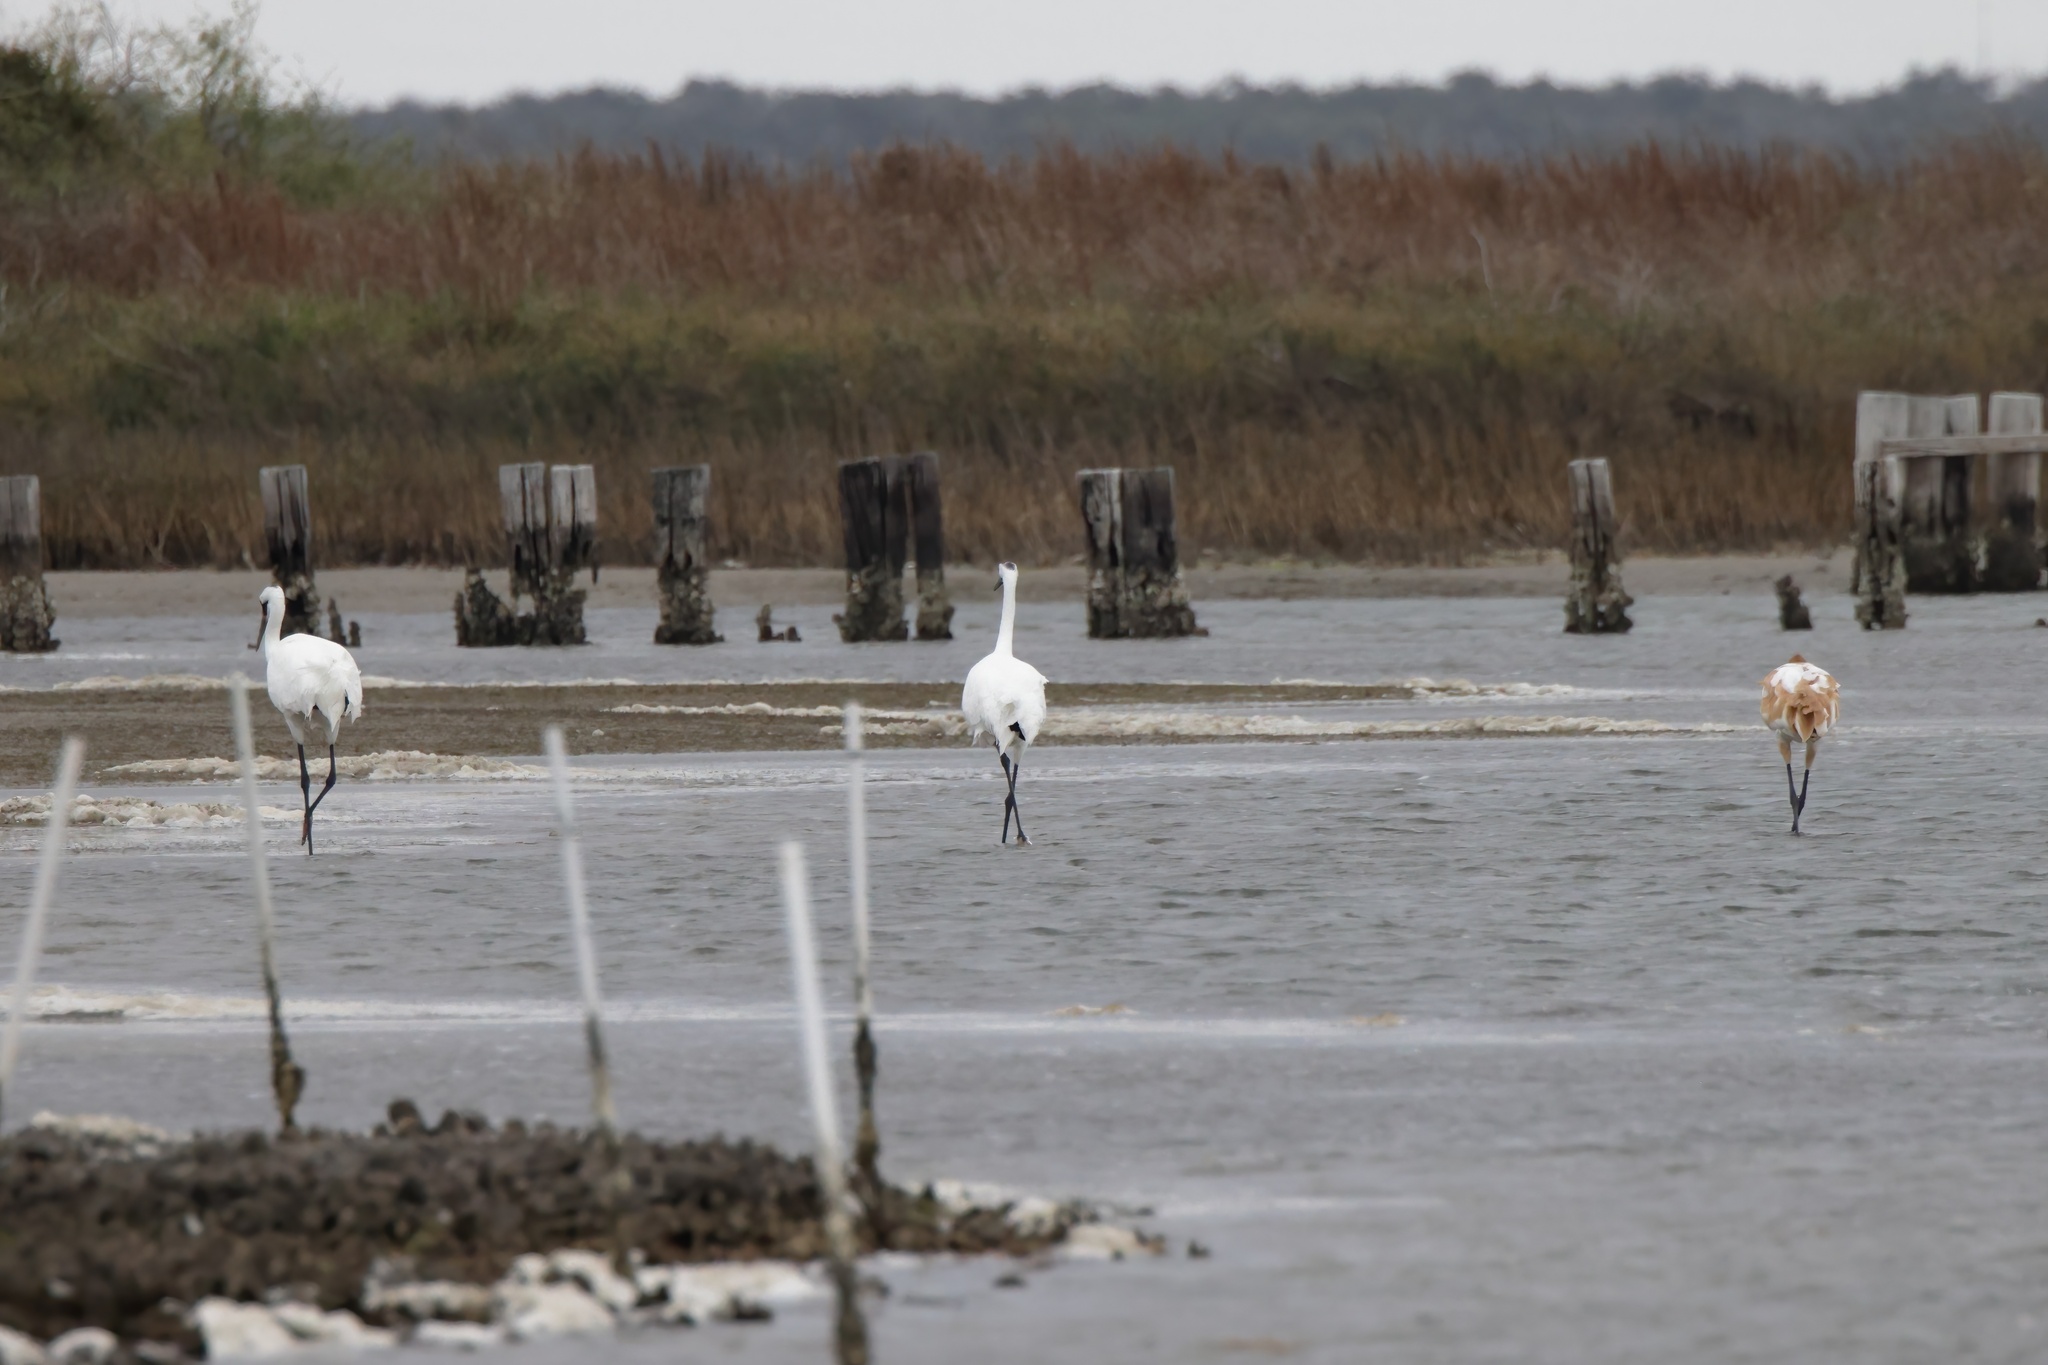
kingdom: Animalia
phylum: Chordata
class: Aves
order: Gruiformes
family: Gruidae
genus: Grus
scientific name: Grus americana
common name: Whooping crane
